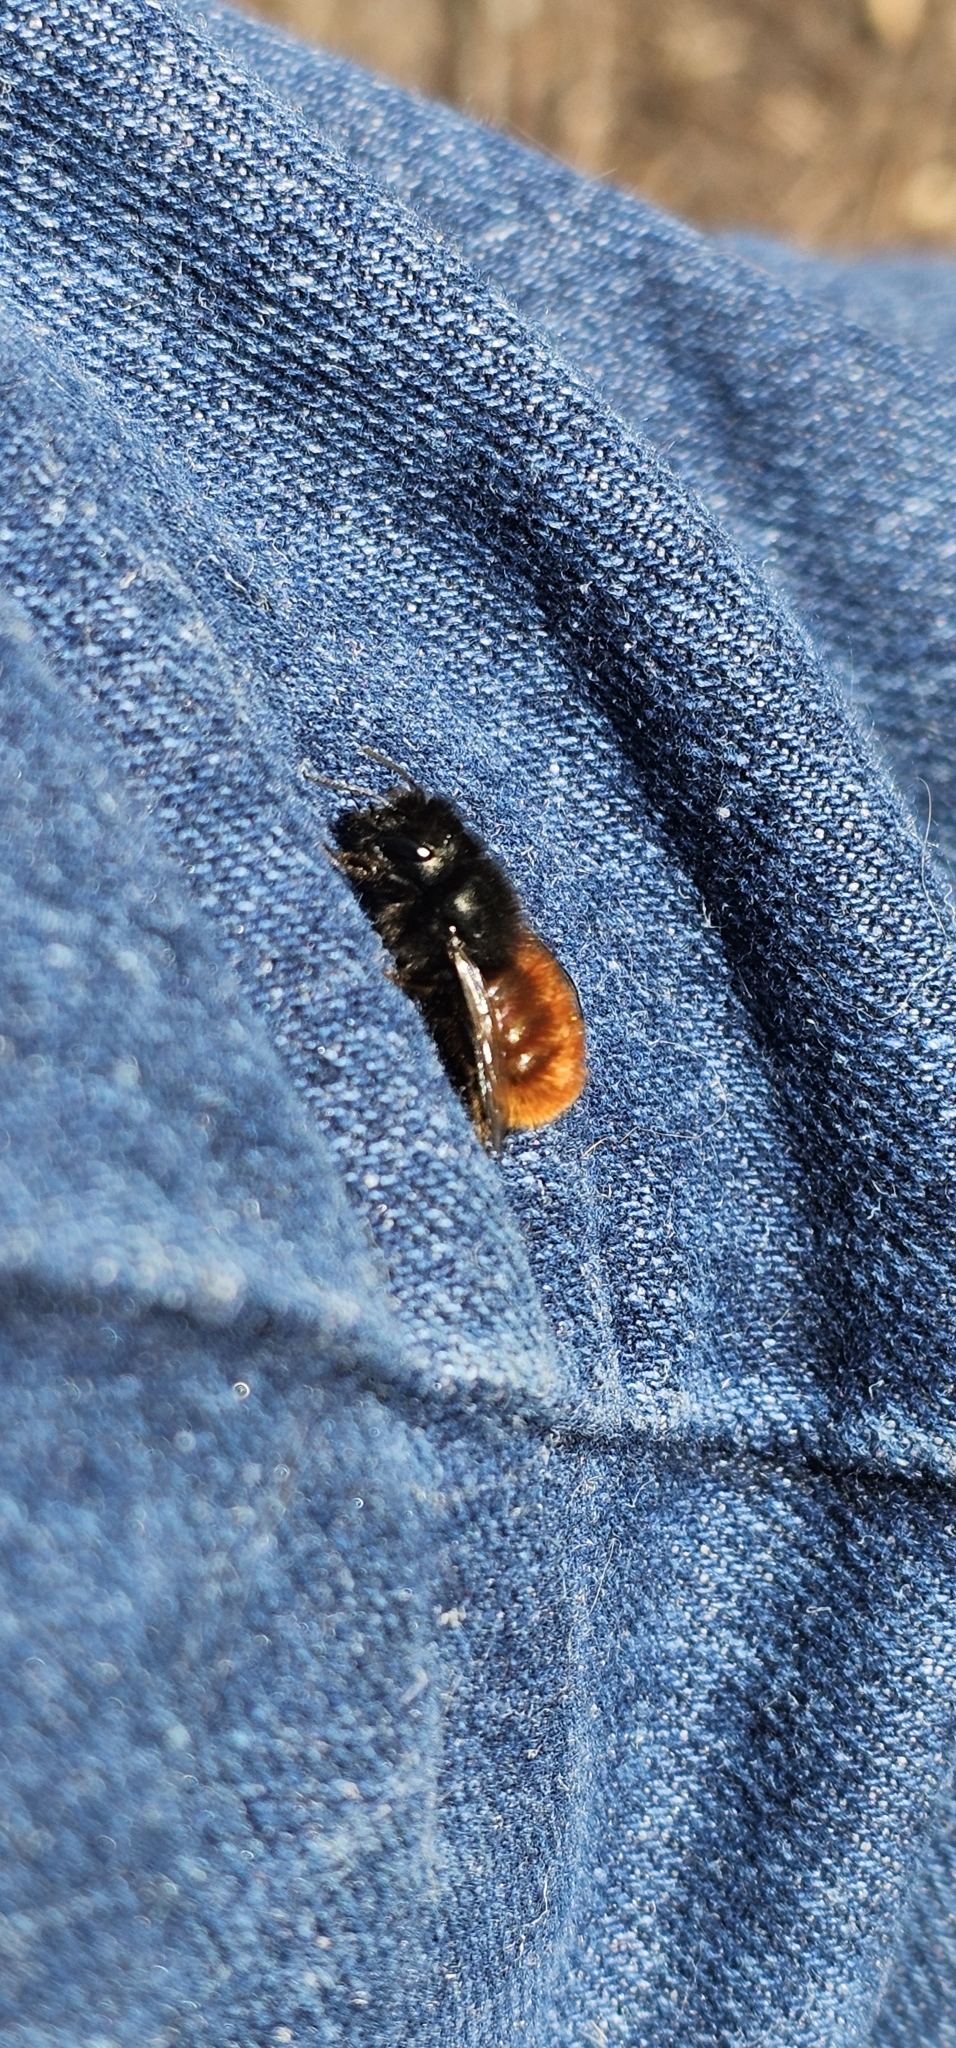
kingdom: Animalia
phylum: Arthropoda
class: Insecta
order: Hymenoptera
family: Megachilidae
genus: Osmia
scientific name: Osmia cornuta
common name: Mason bee
